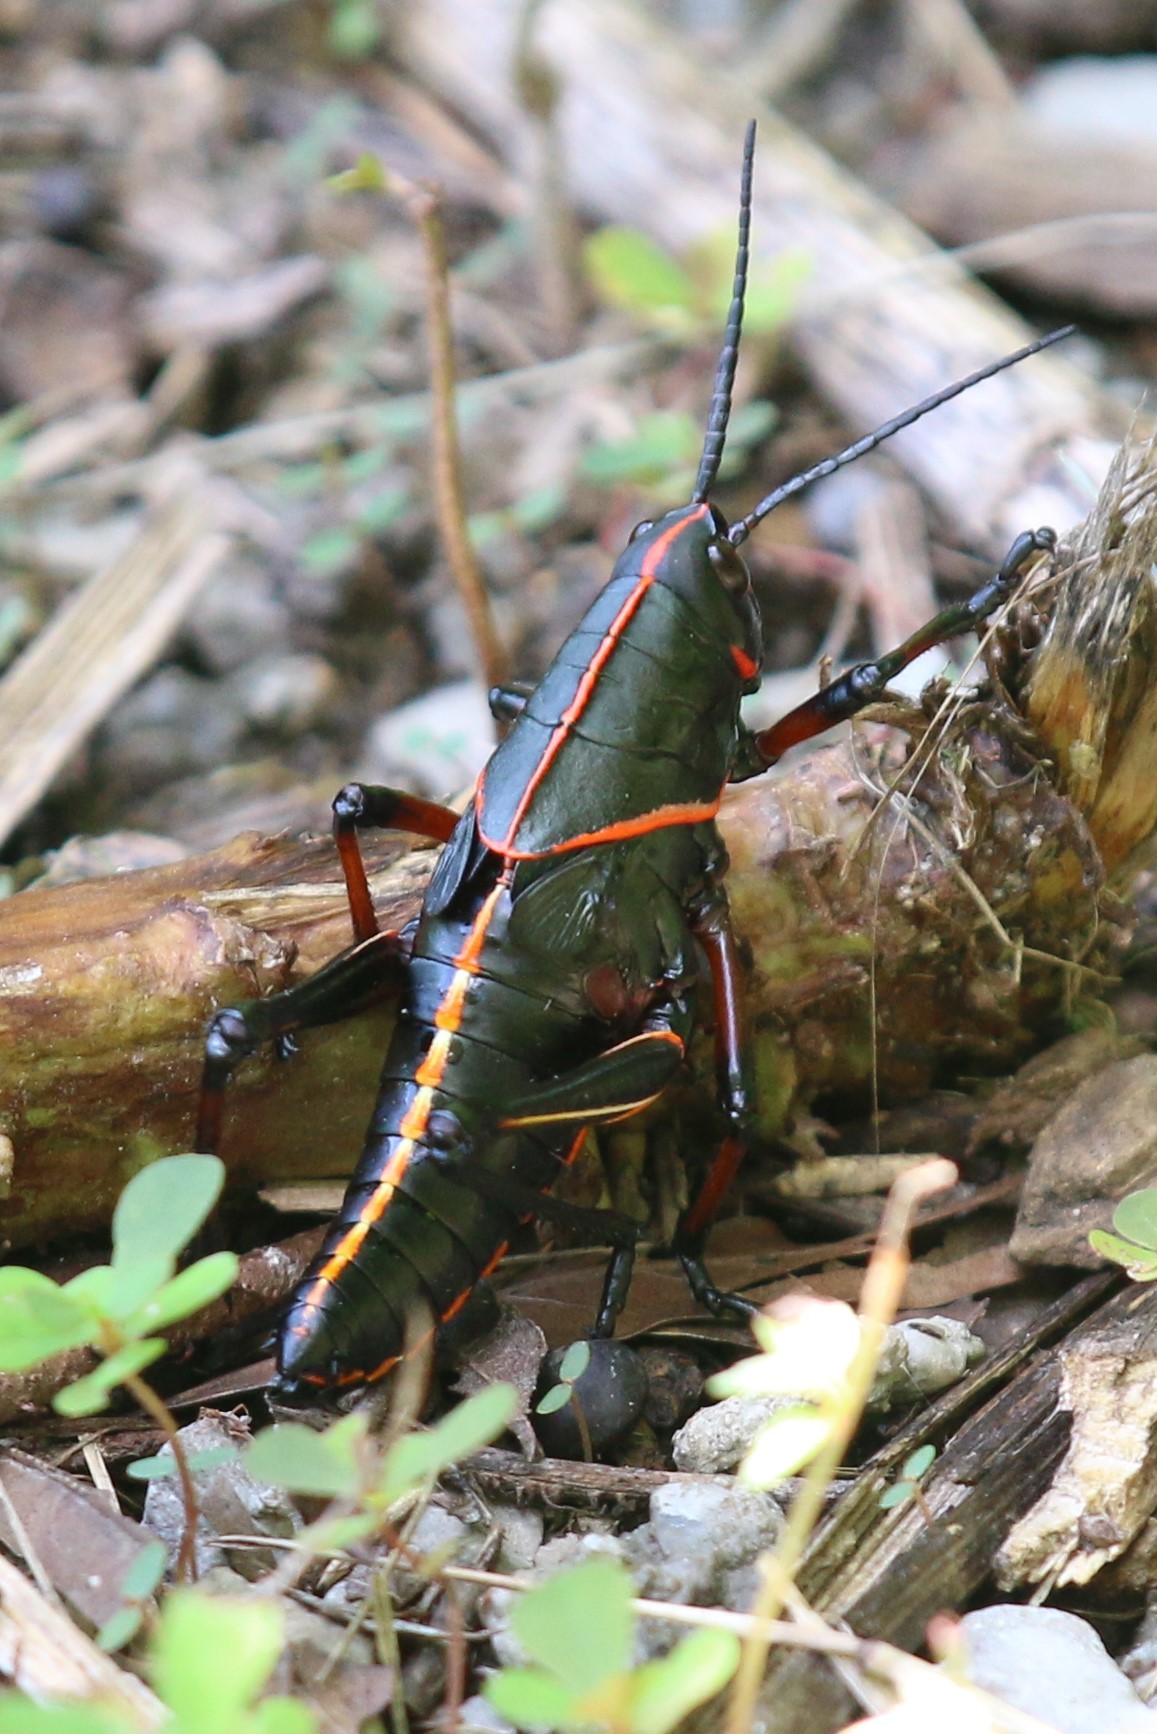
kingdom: Animalia
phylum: Arthropoda
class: Insecta
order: Orthoptera
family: Romaleidae
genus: Romalea
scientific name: Romalea microptera
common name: Eastern lubber grasshopper
